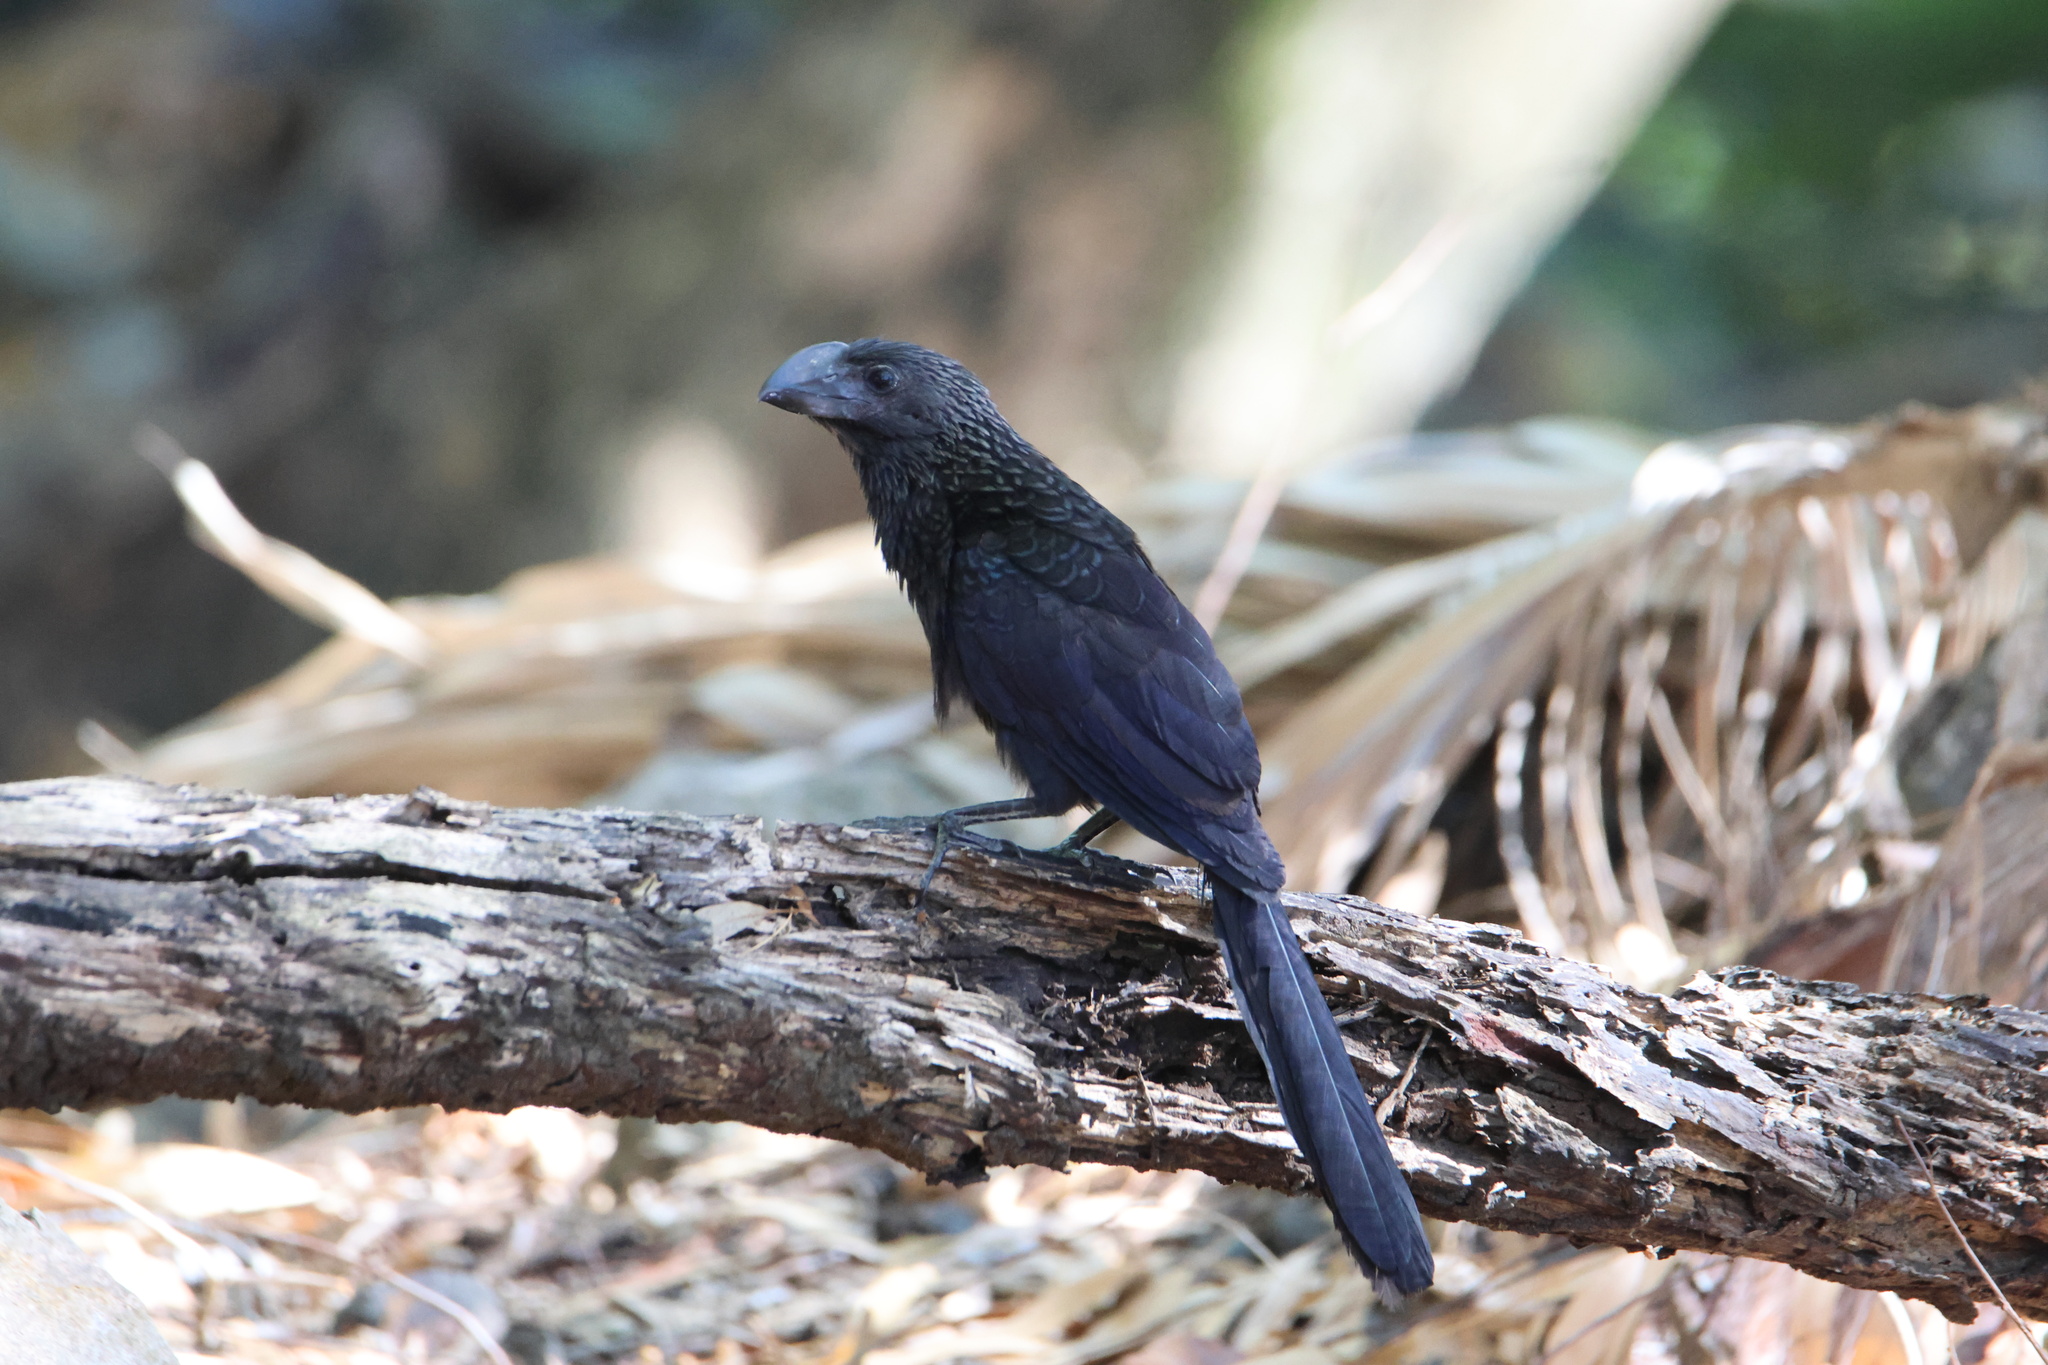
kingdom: Animalia
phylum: Chordata
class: Aves
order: Cuculiformes
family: Cuculidae
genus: Crotophaga
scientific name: Crotophaga ani
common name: Smooth-billed ani
